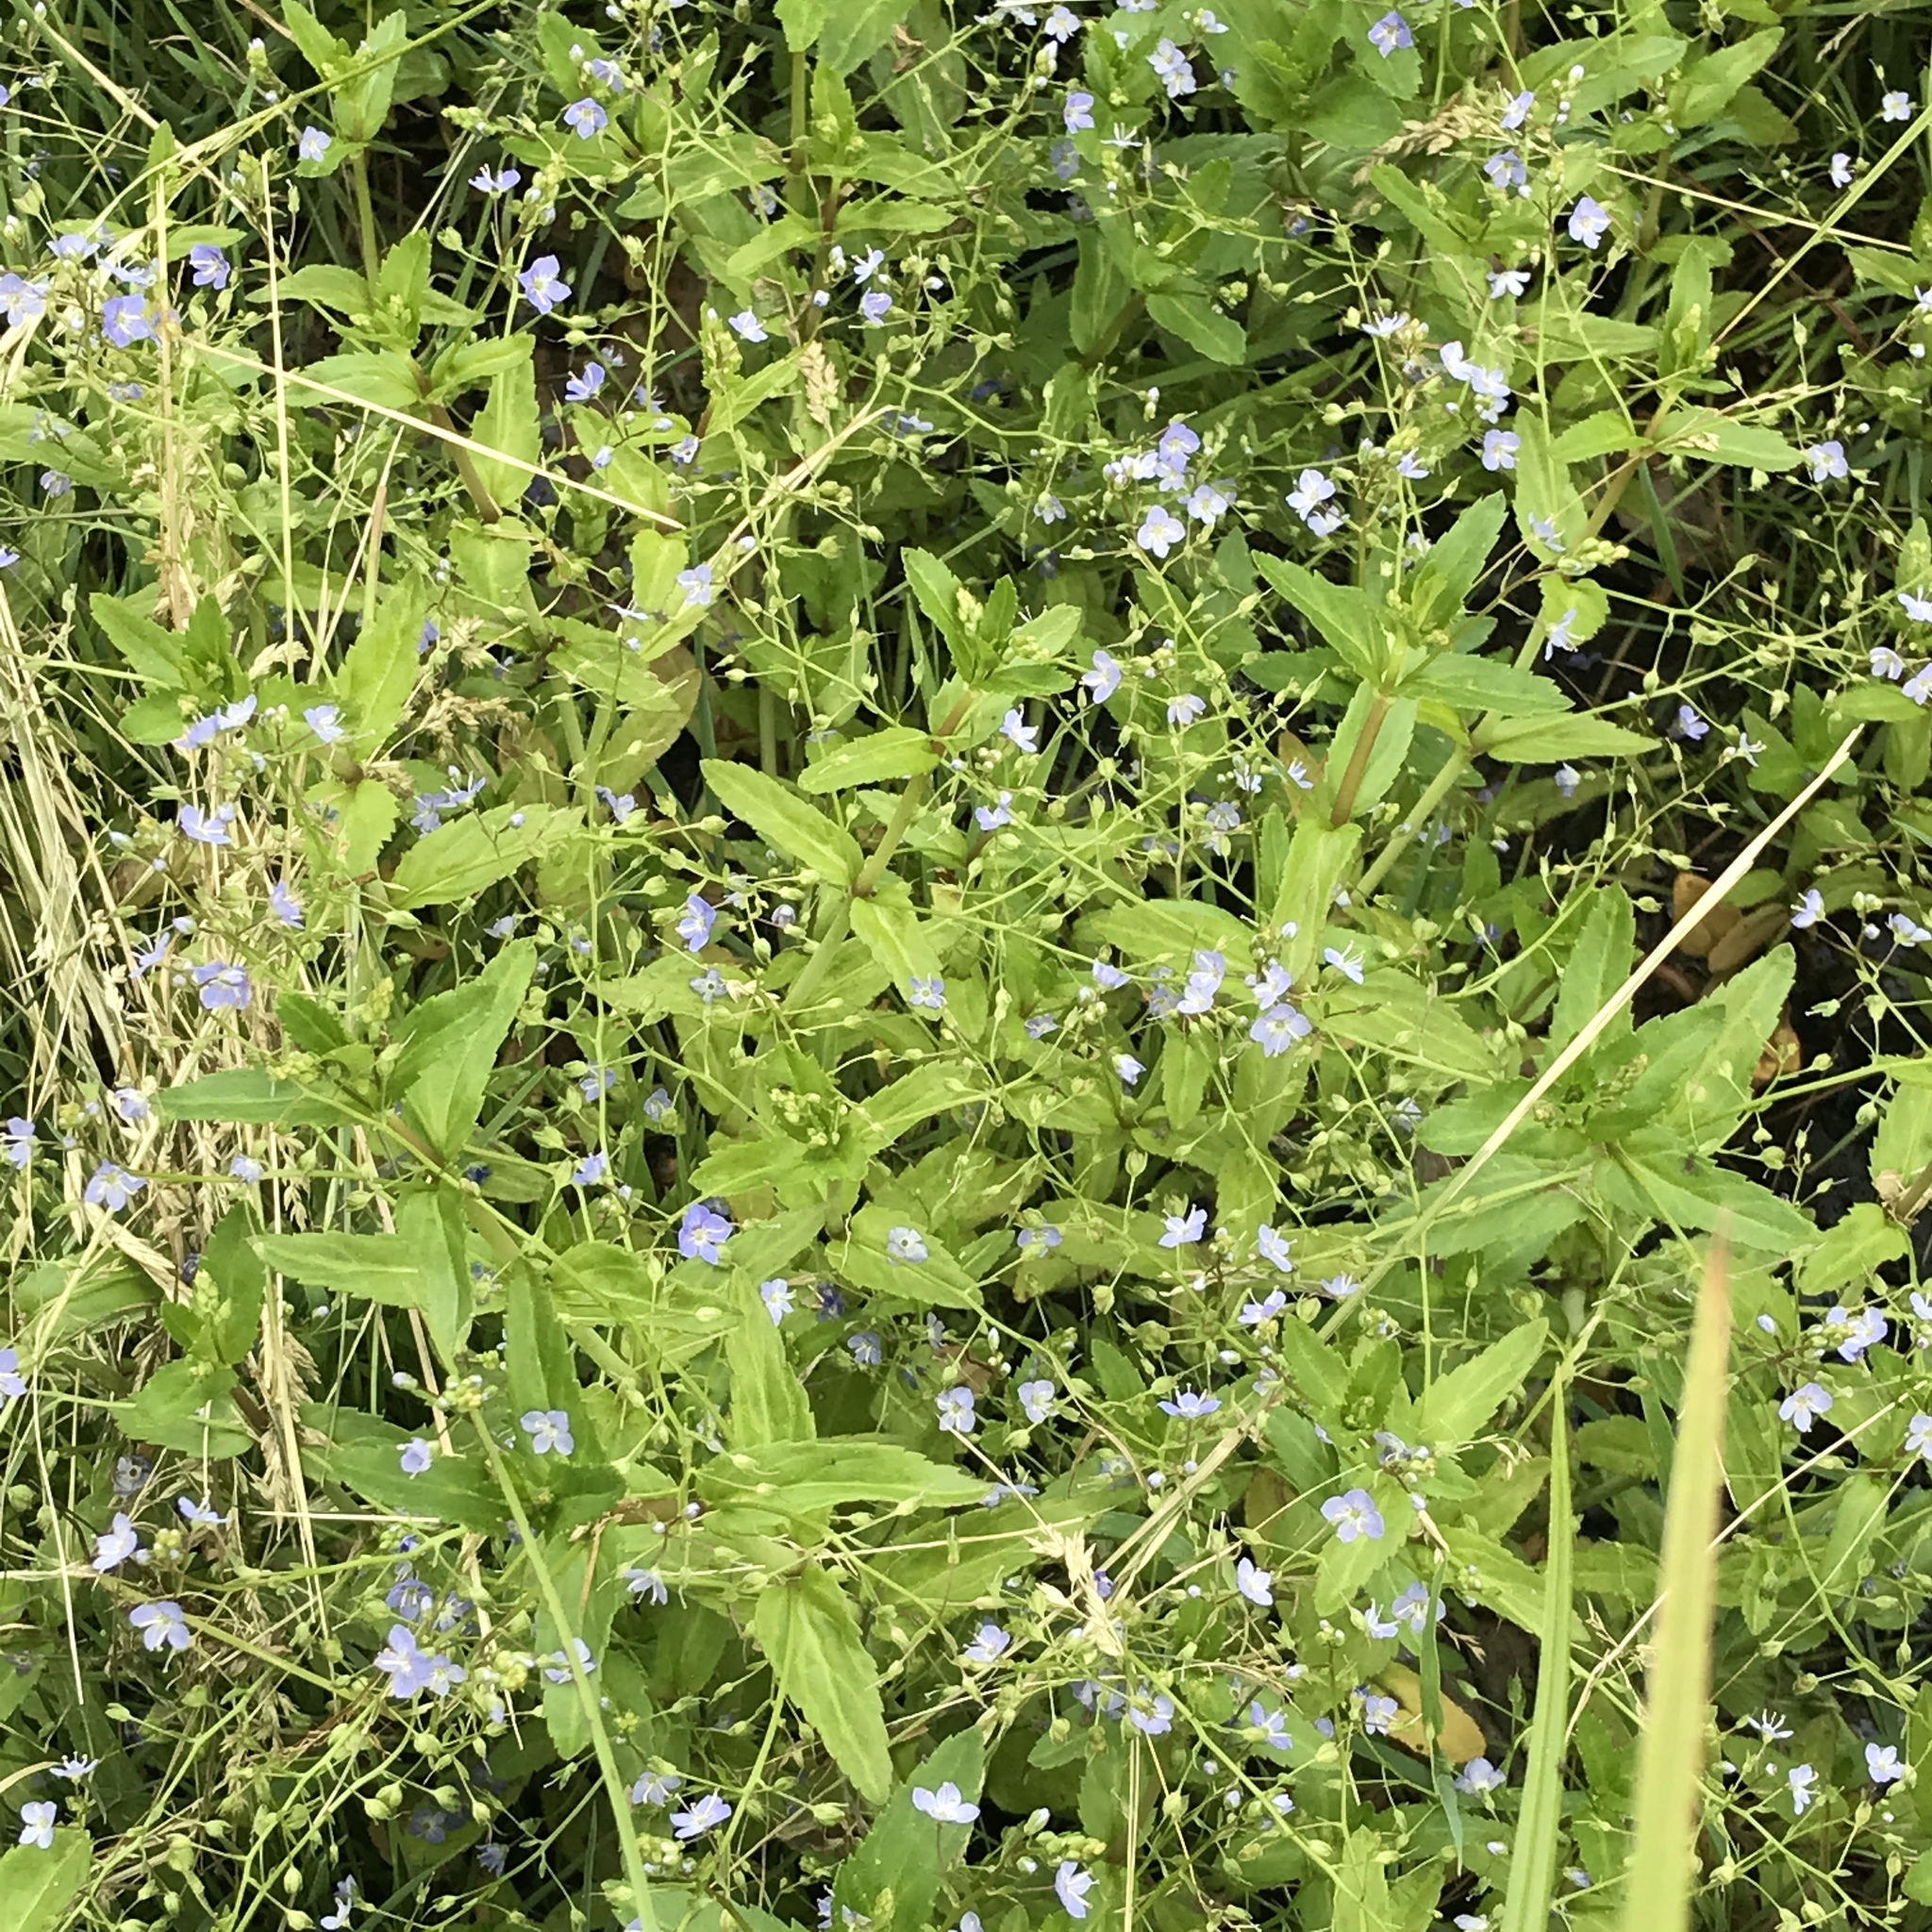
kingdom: Plantae
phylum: Tracheophyta
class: Magnoliopsida
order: Lamiales
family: Plantaginaceae
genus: Veronica
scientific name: Veronica americana
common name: American brooklime
